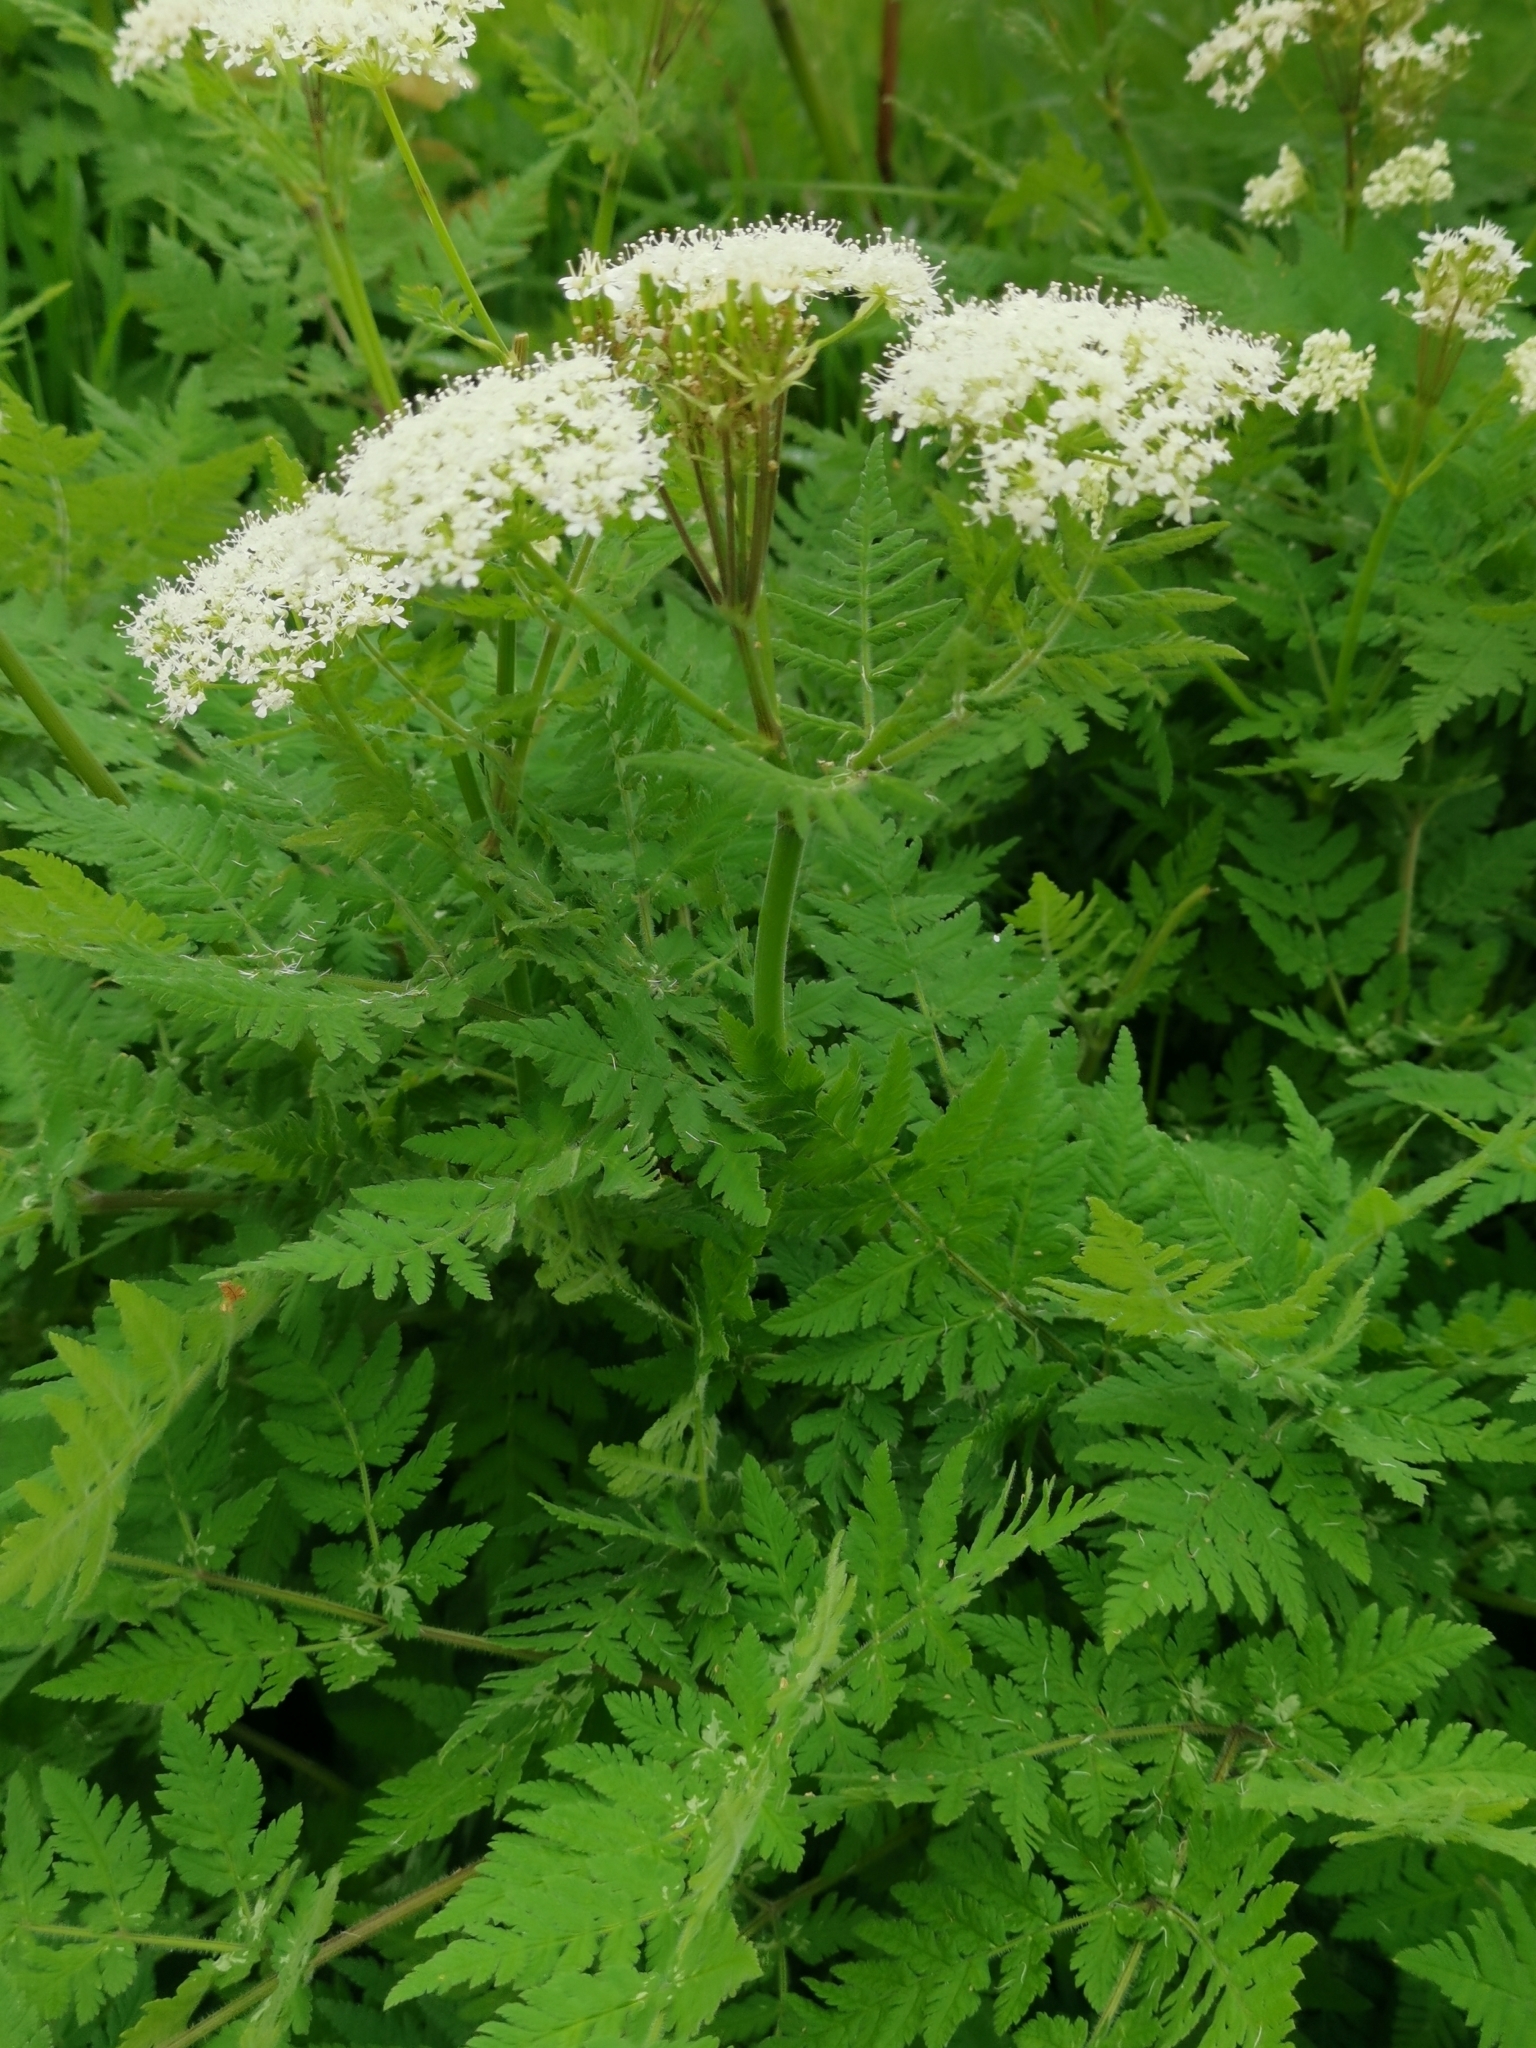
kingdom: Plantae
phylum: Tracheophyta
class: Magnoliopsida
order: Apiales
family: Apiaceae
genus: Myrrhis
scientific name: Myrrhis odorata
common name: Sweet cicely
